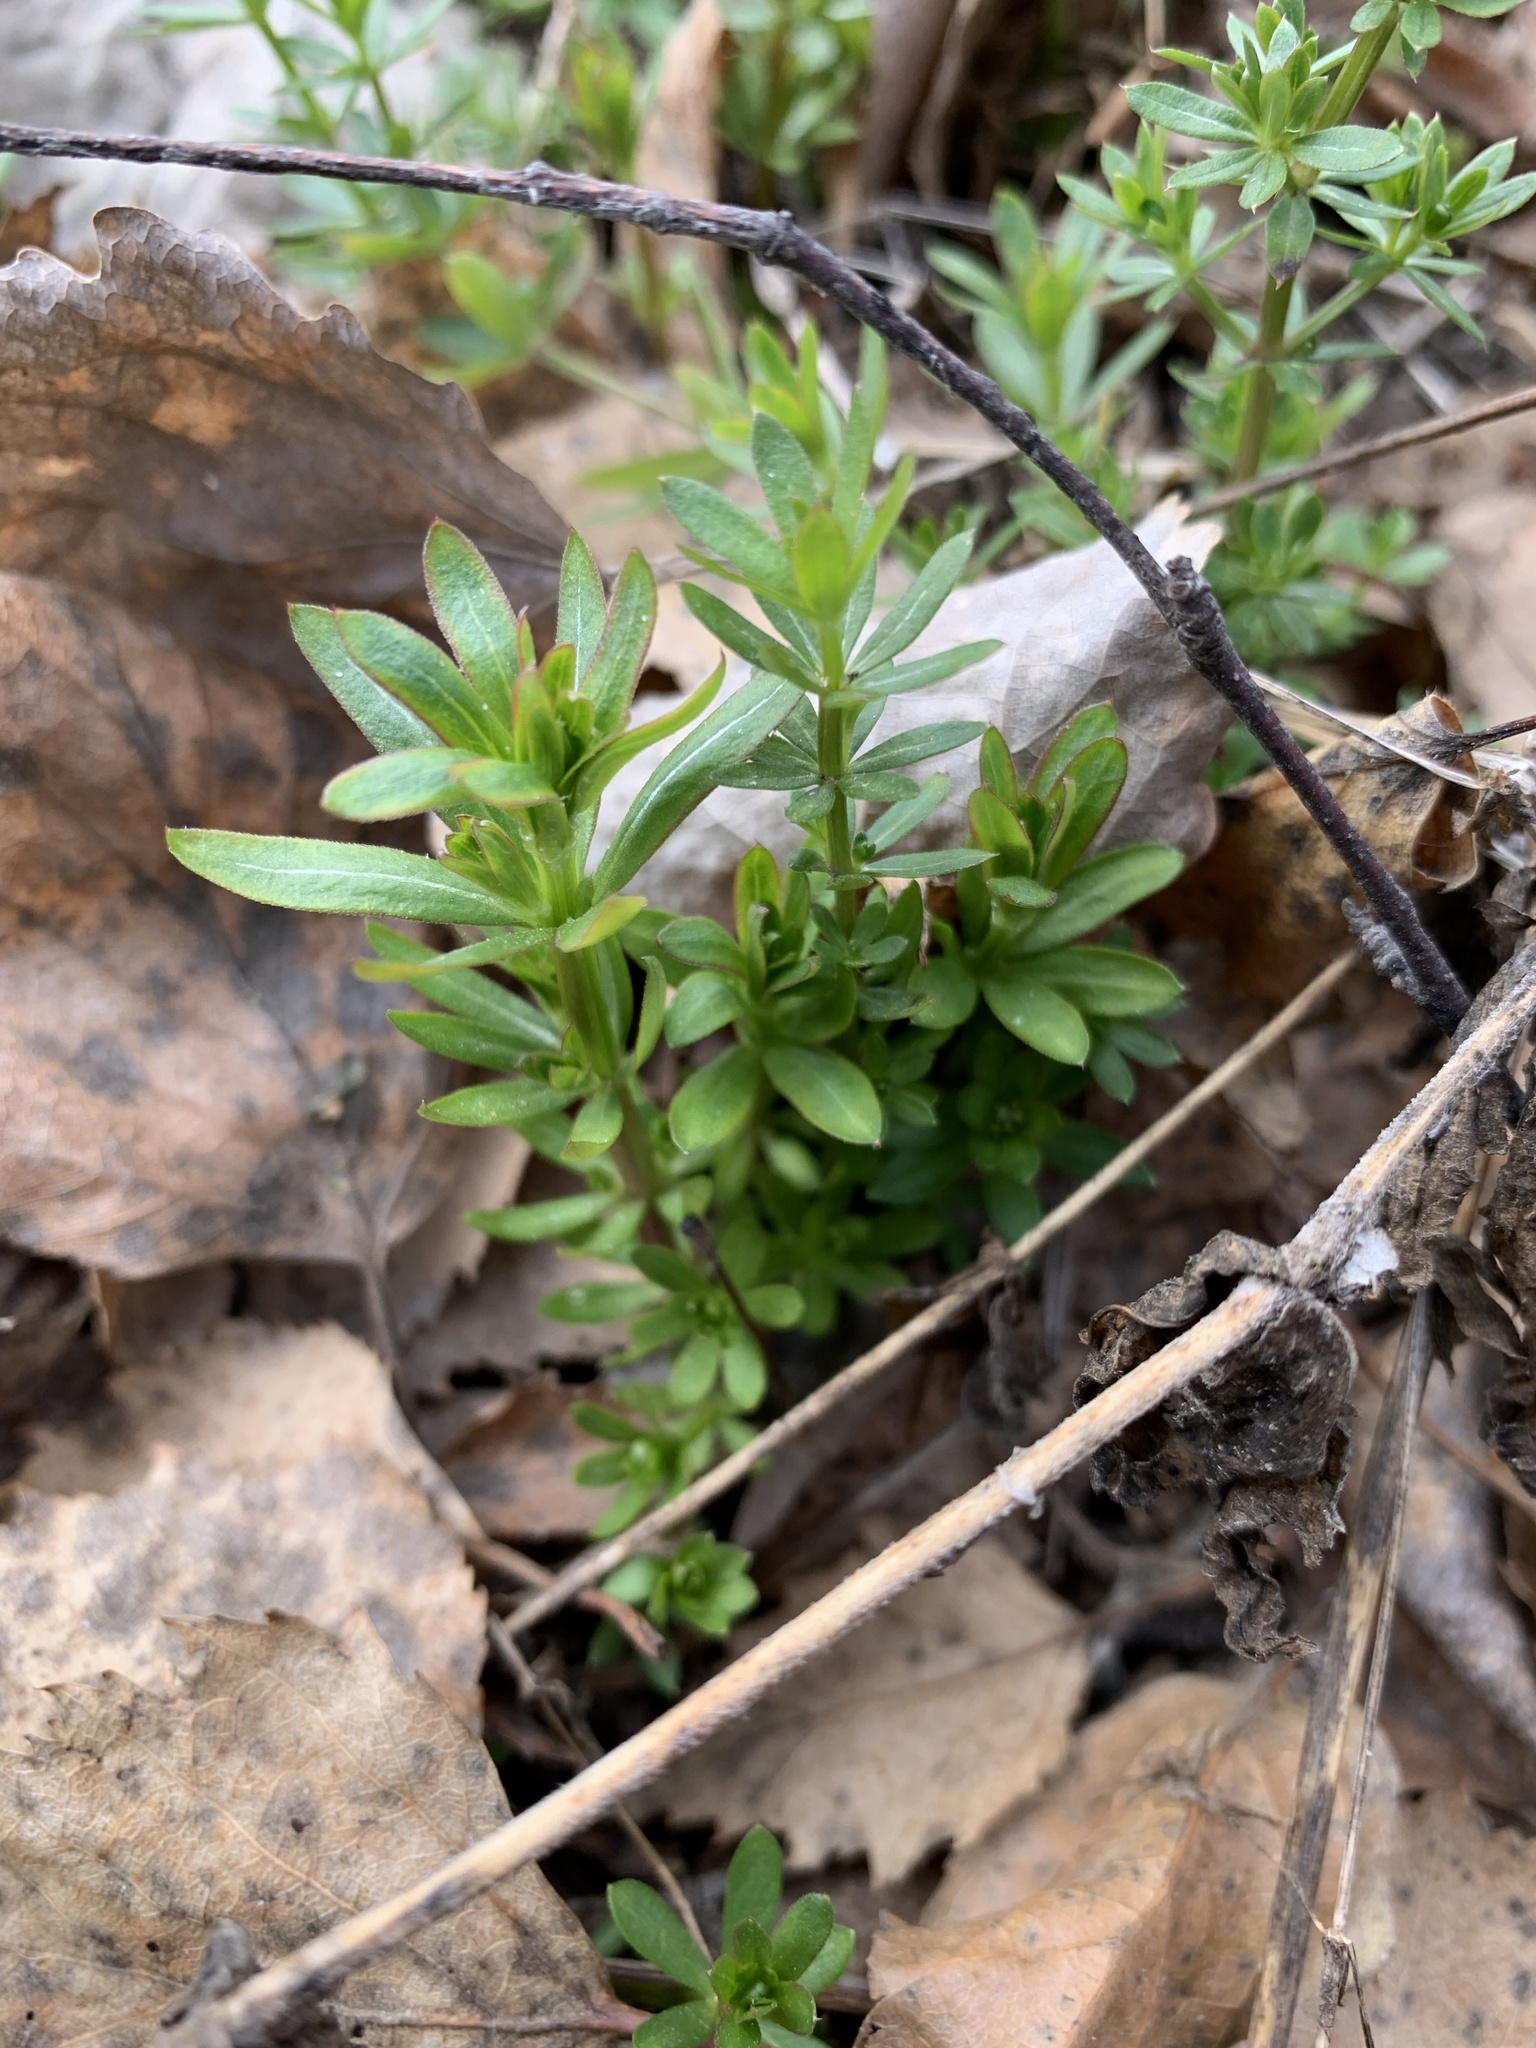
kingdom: Plantae
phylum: Tracheophyta
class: Magnoliopsida
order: Gentianales
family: Rubiaceae
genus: Galium
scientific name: Galium mollugo
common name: Hedge bedstraw
